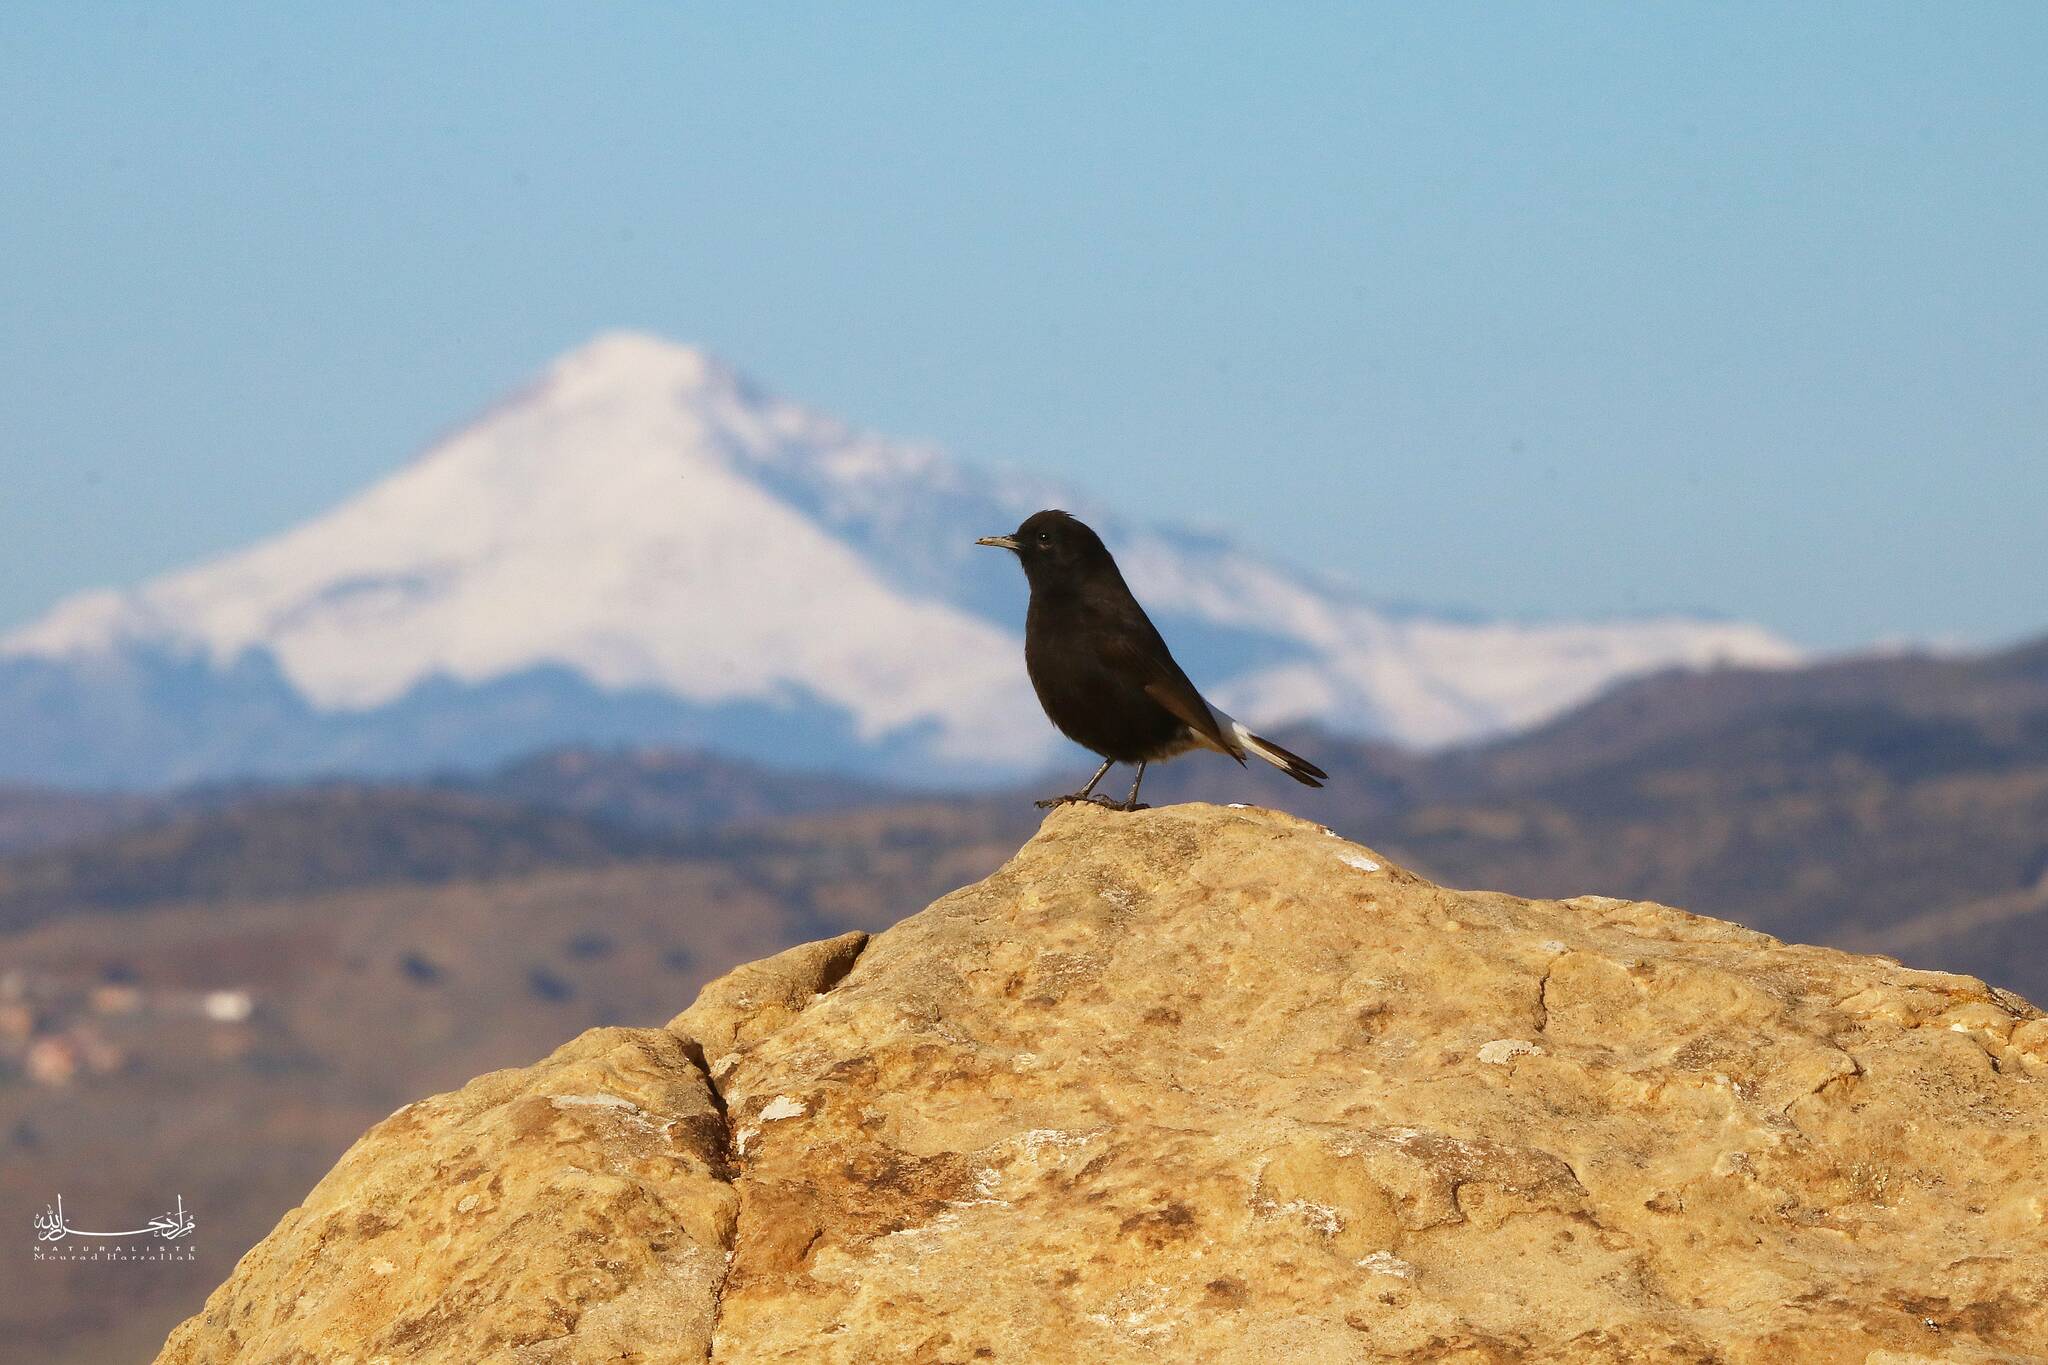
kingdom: Animalia
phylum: Chordata
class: Aves
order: Passeriformes
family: Muscicapidae
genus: Oenanthe
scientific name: Oenanthe leucura
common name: Black wheatear
